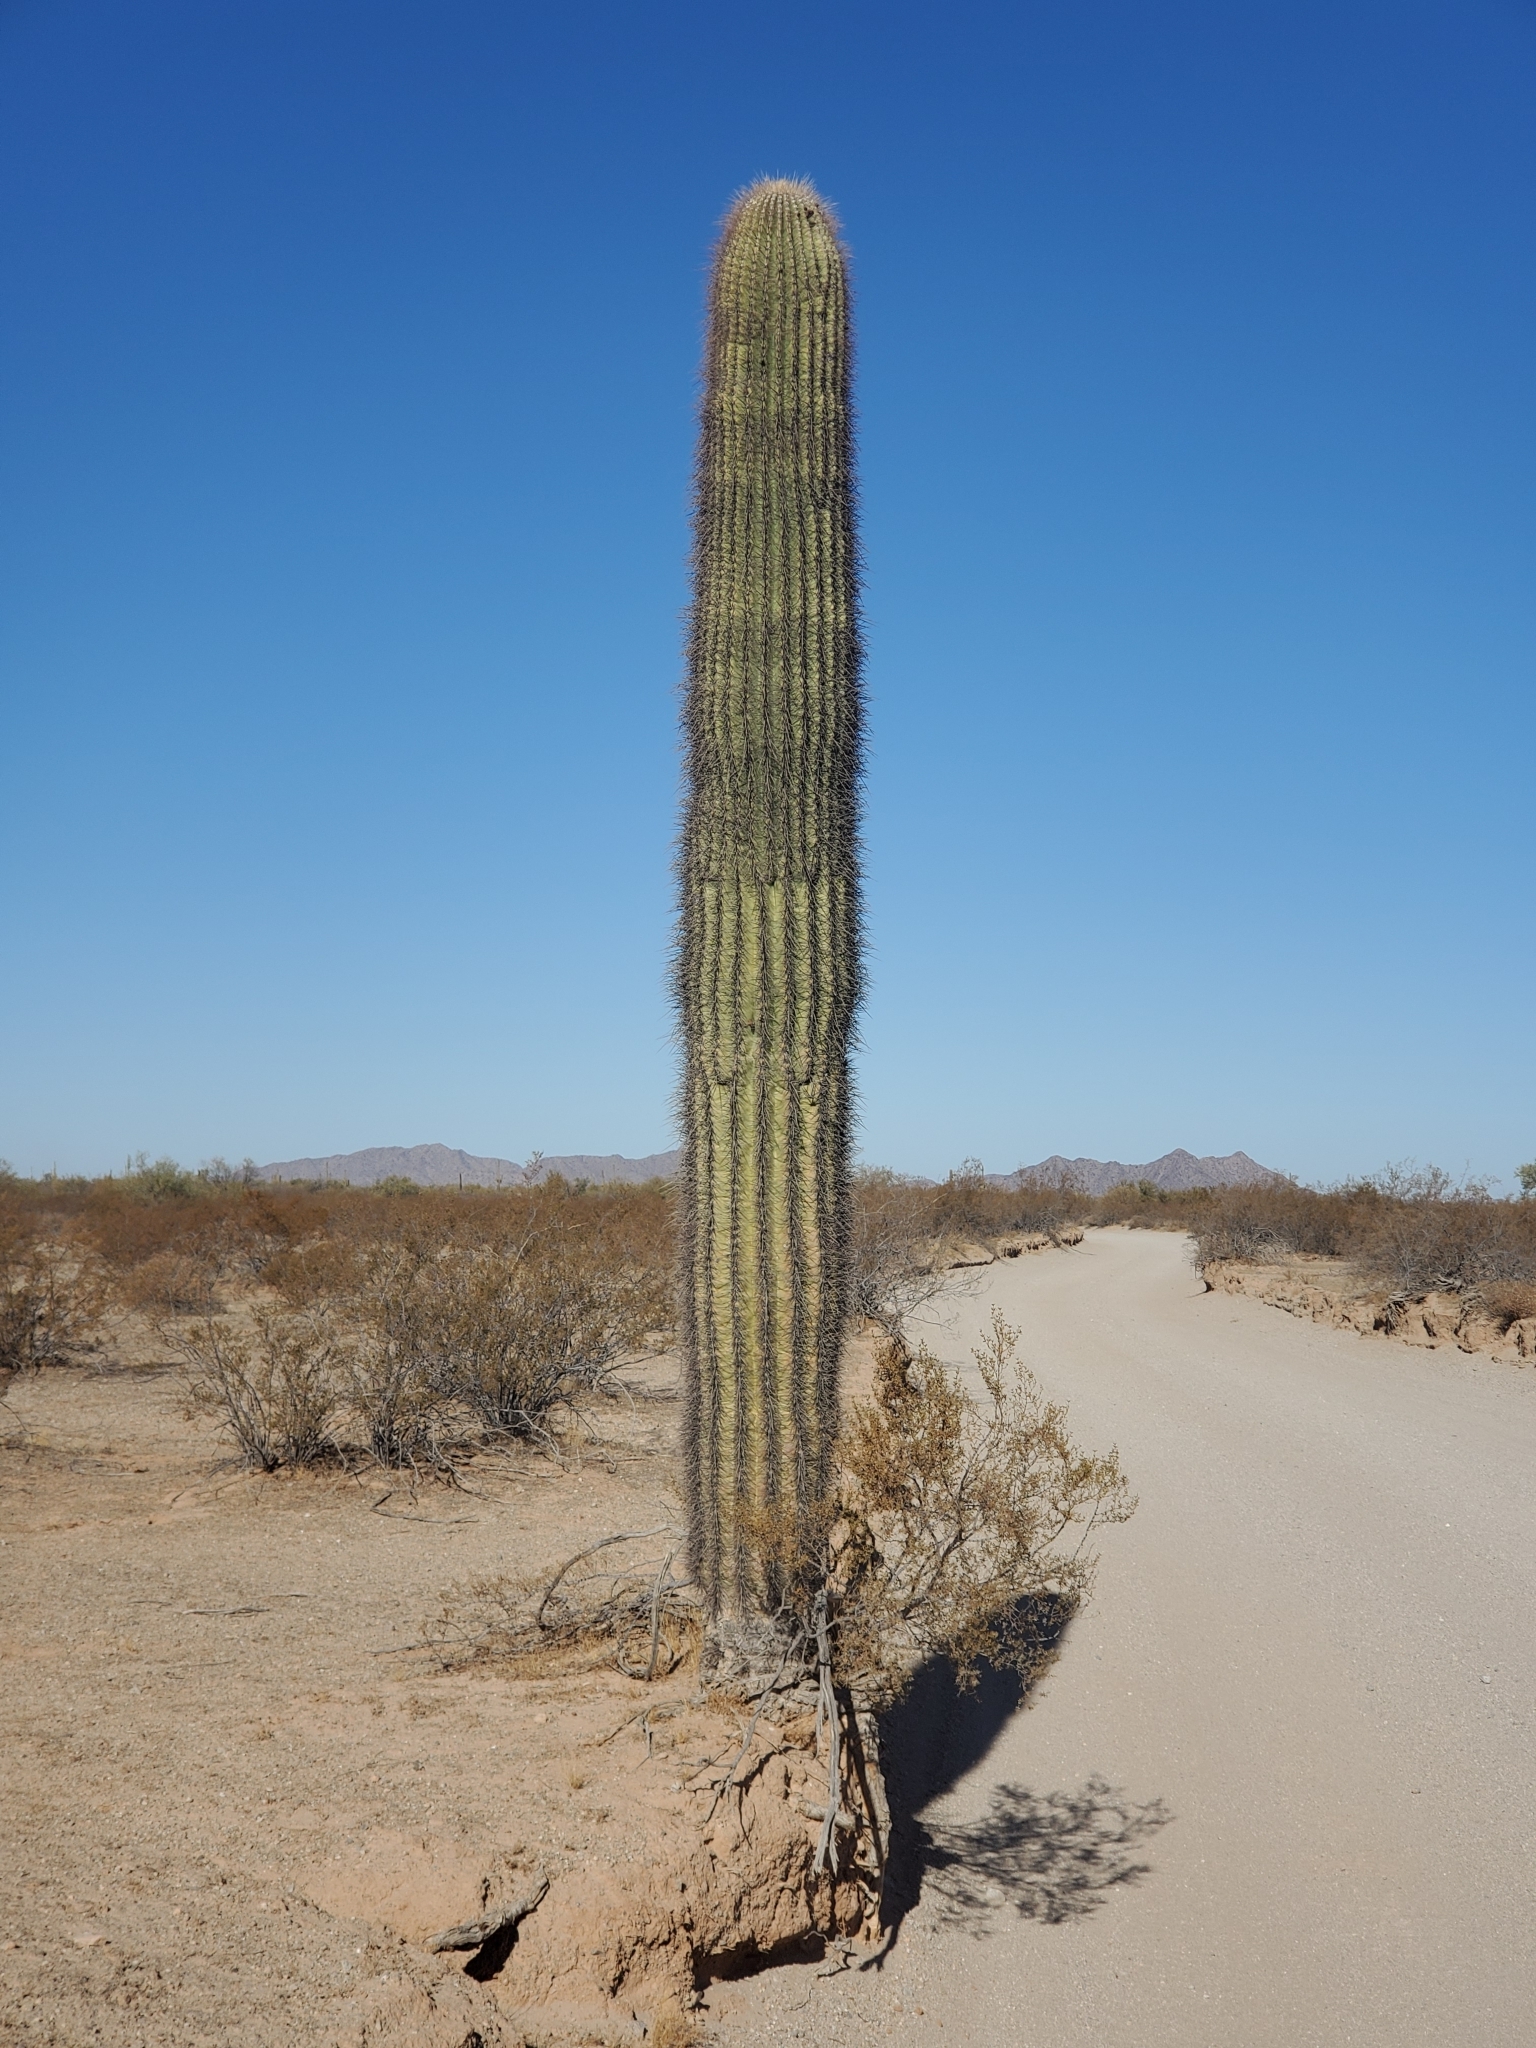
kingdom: Plantae
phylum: Tracheophyta
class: Magnoliopsida
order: Caryophyllales
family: Cactaceae
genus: Carnegiea
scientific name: Carnegiea gigantea
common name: Saguaro
